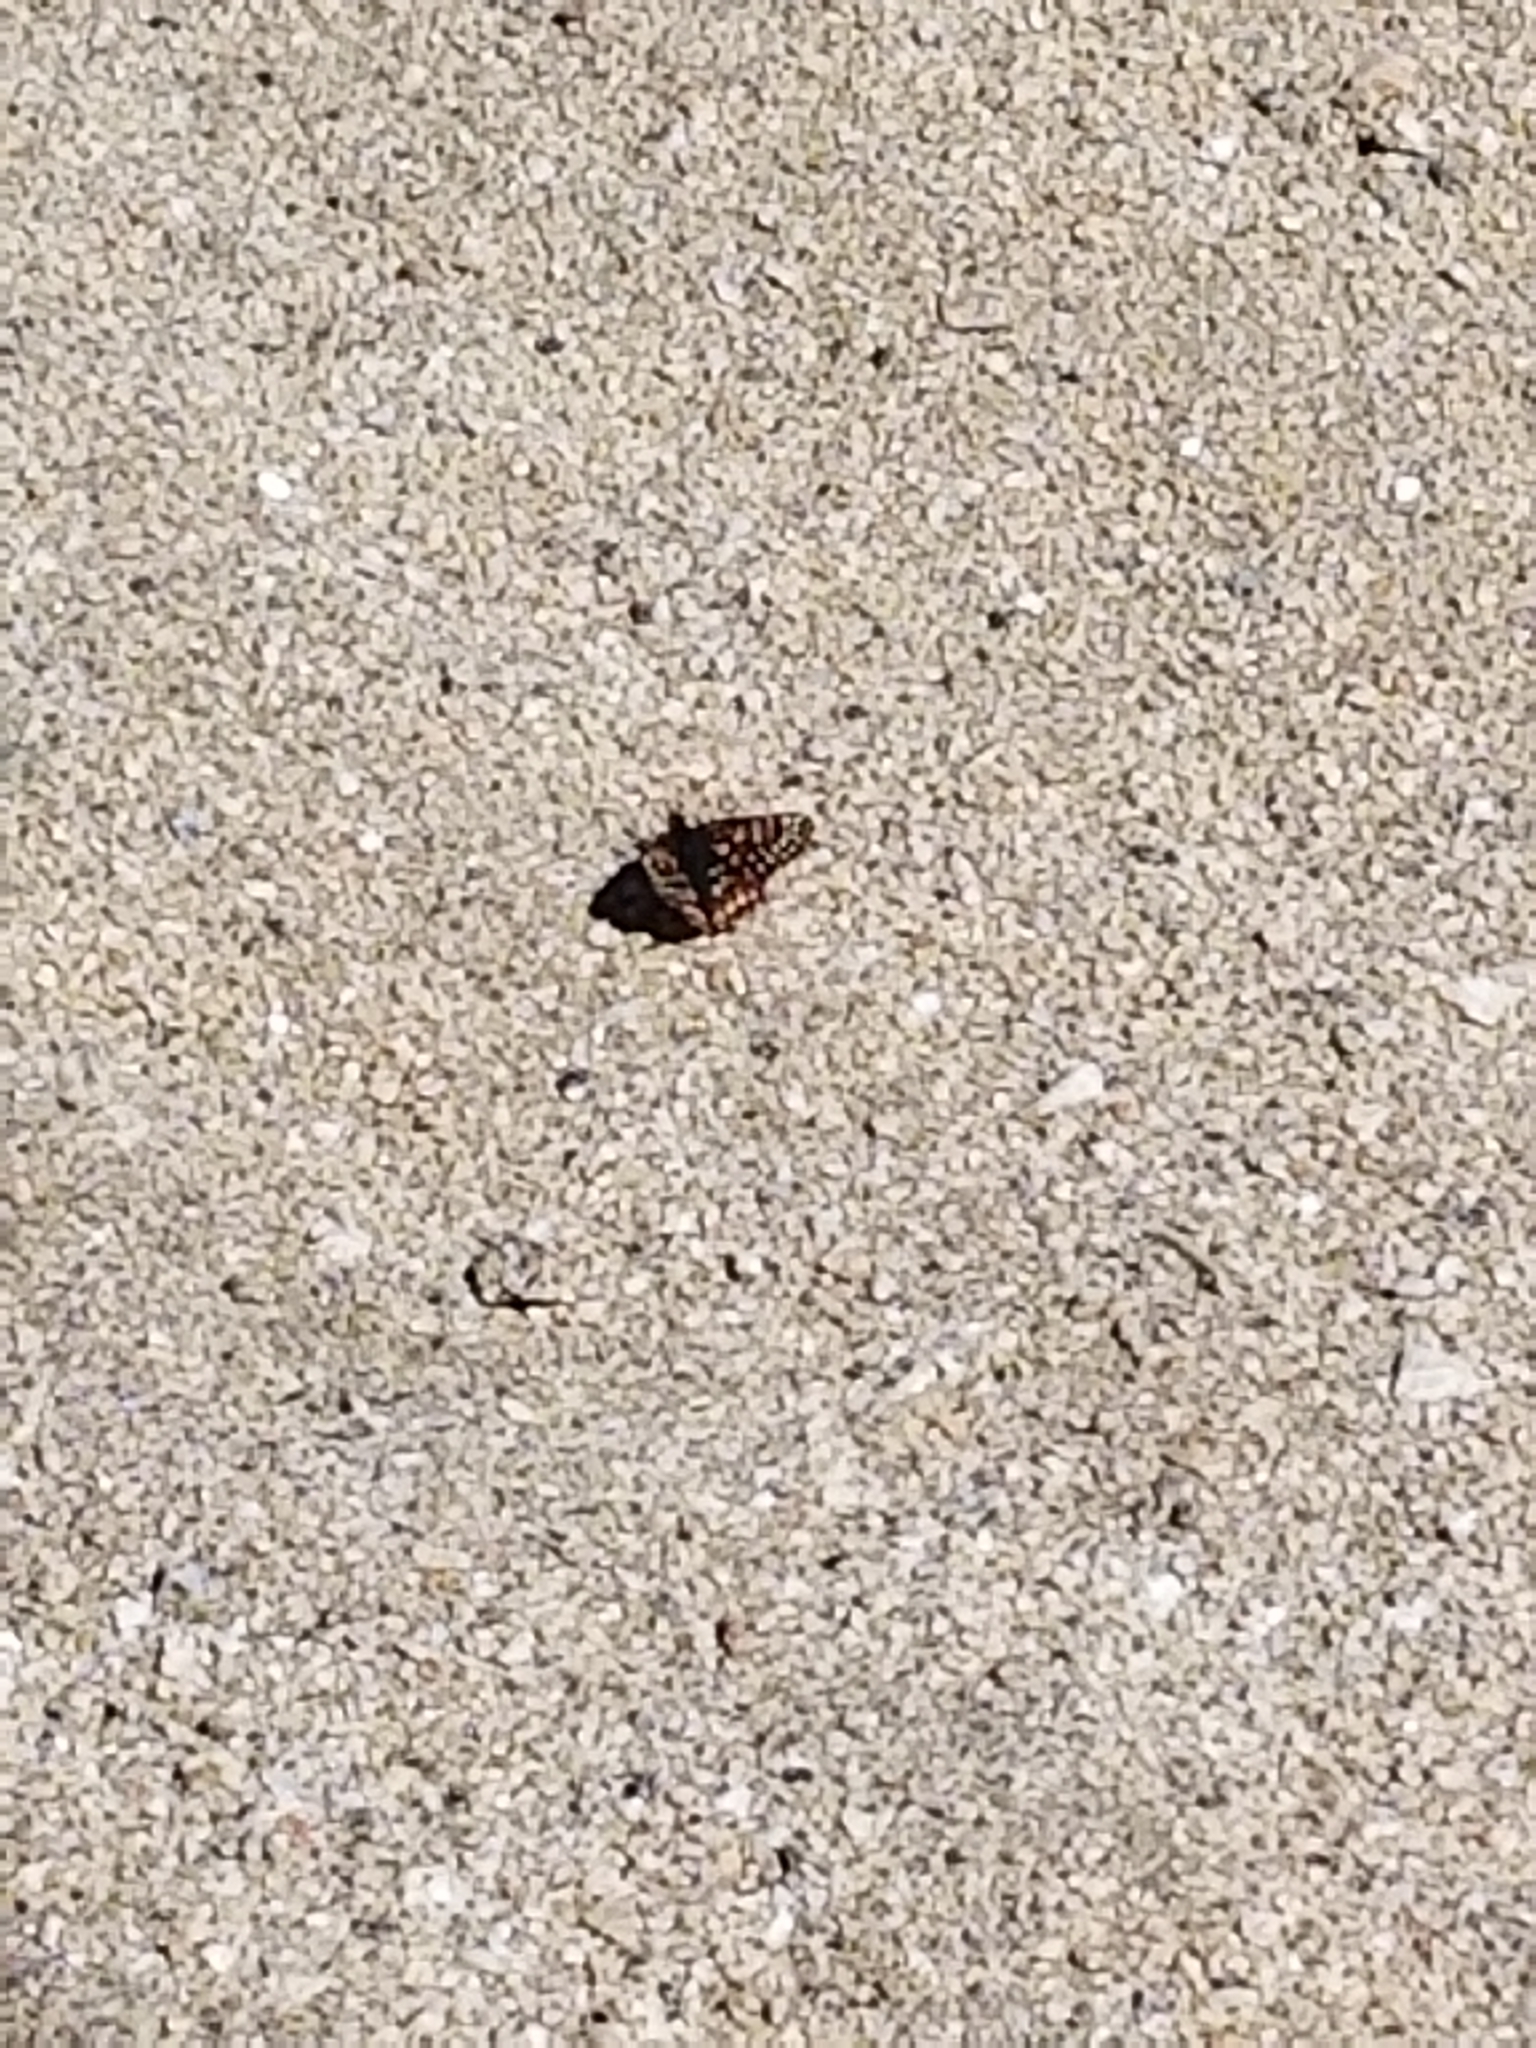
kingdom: Animalia
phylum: Arthropoda
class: Insecta
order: Lepidoptera
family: Nymphalidae
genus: Occidryas
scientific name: Occidryas chalcedona
